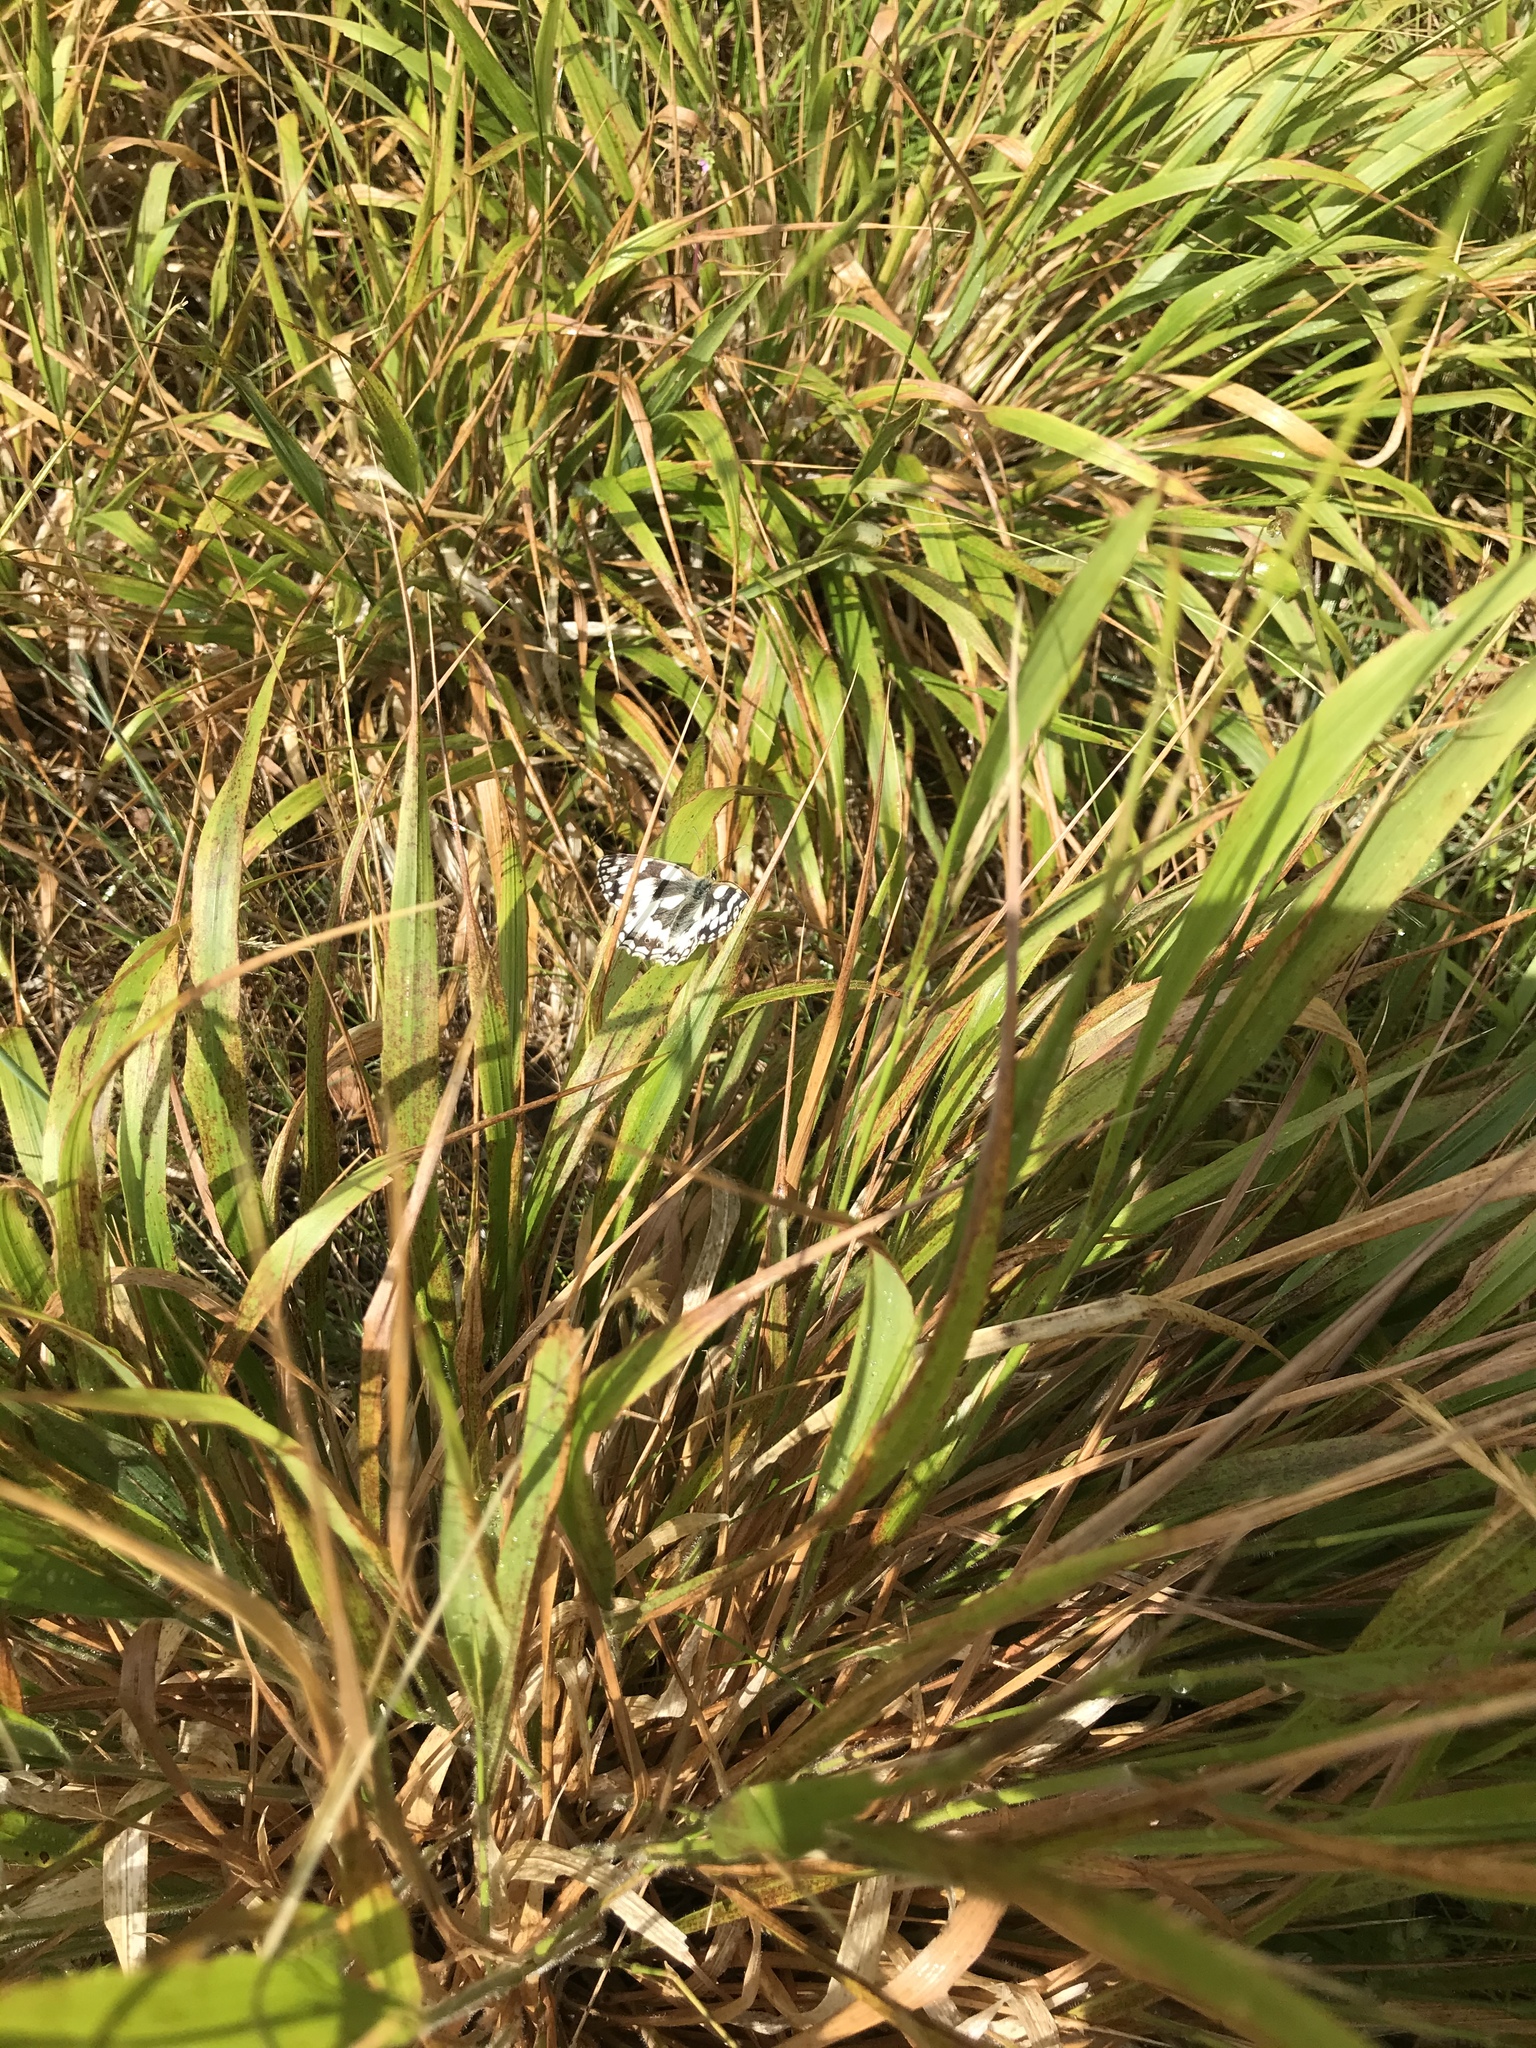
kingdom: Animalia
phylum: Arthropoda
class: Insecta
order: Lepidoptera
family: Nymphalidae
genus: Melanargia
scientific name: Melanargia galathea
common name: Marbled white
